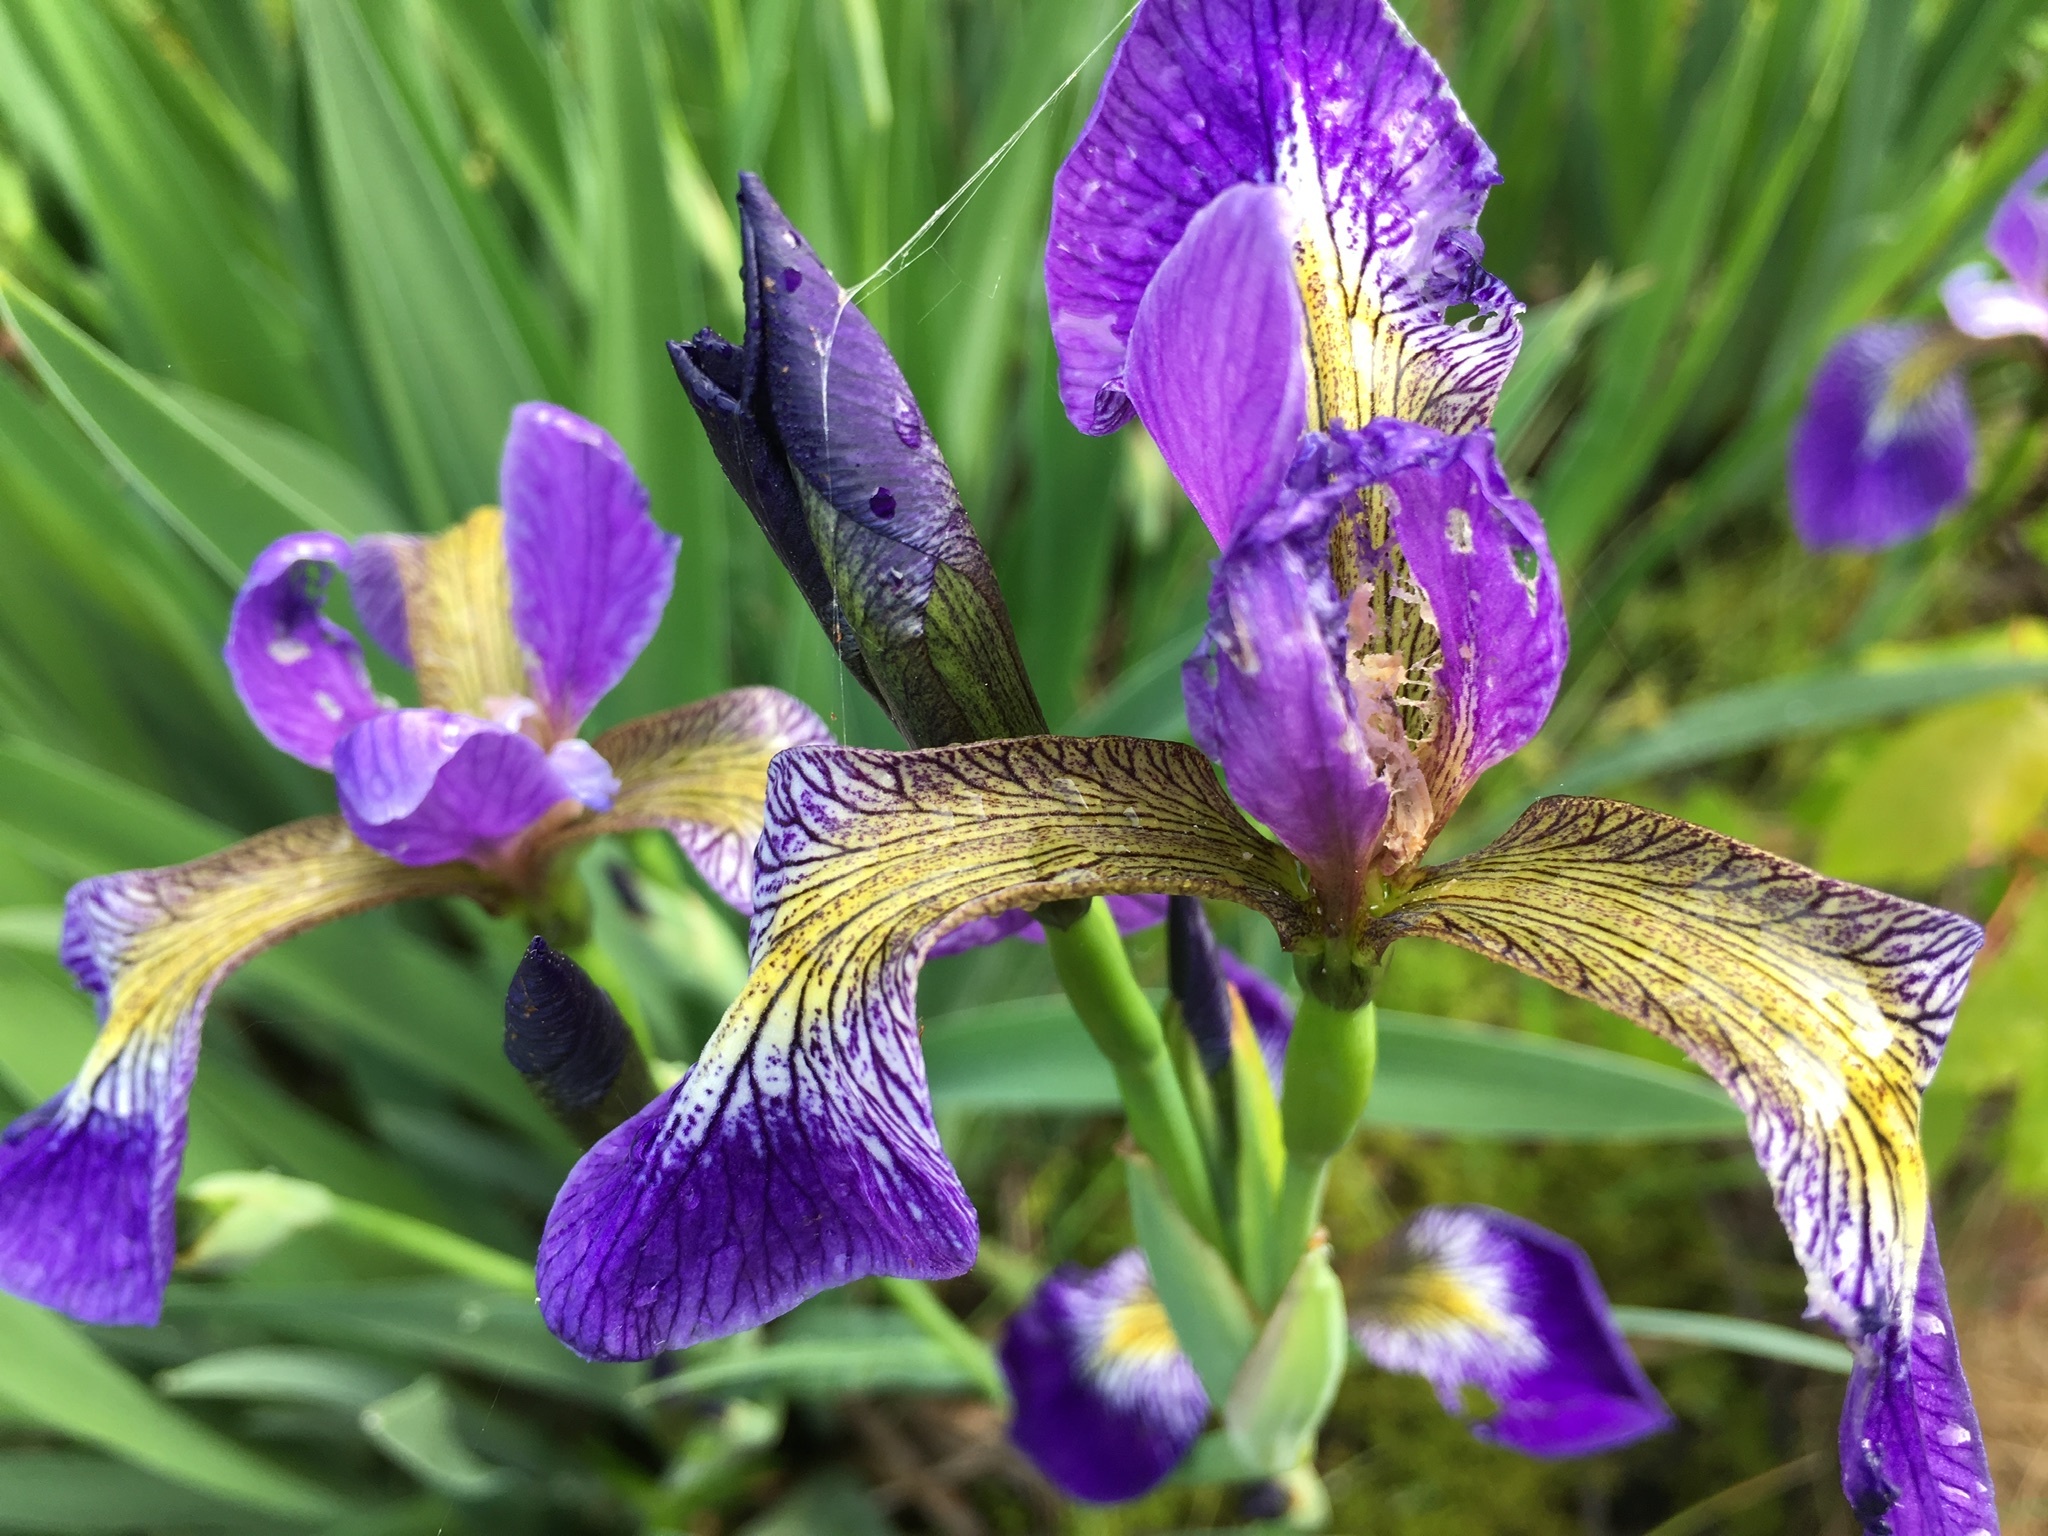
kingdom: Plantae
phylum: Tracheophyta
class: Liliopsida
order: Asparagales
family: Iridaceae
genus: Iris
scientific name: Iris versicolor
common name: Purple iris
